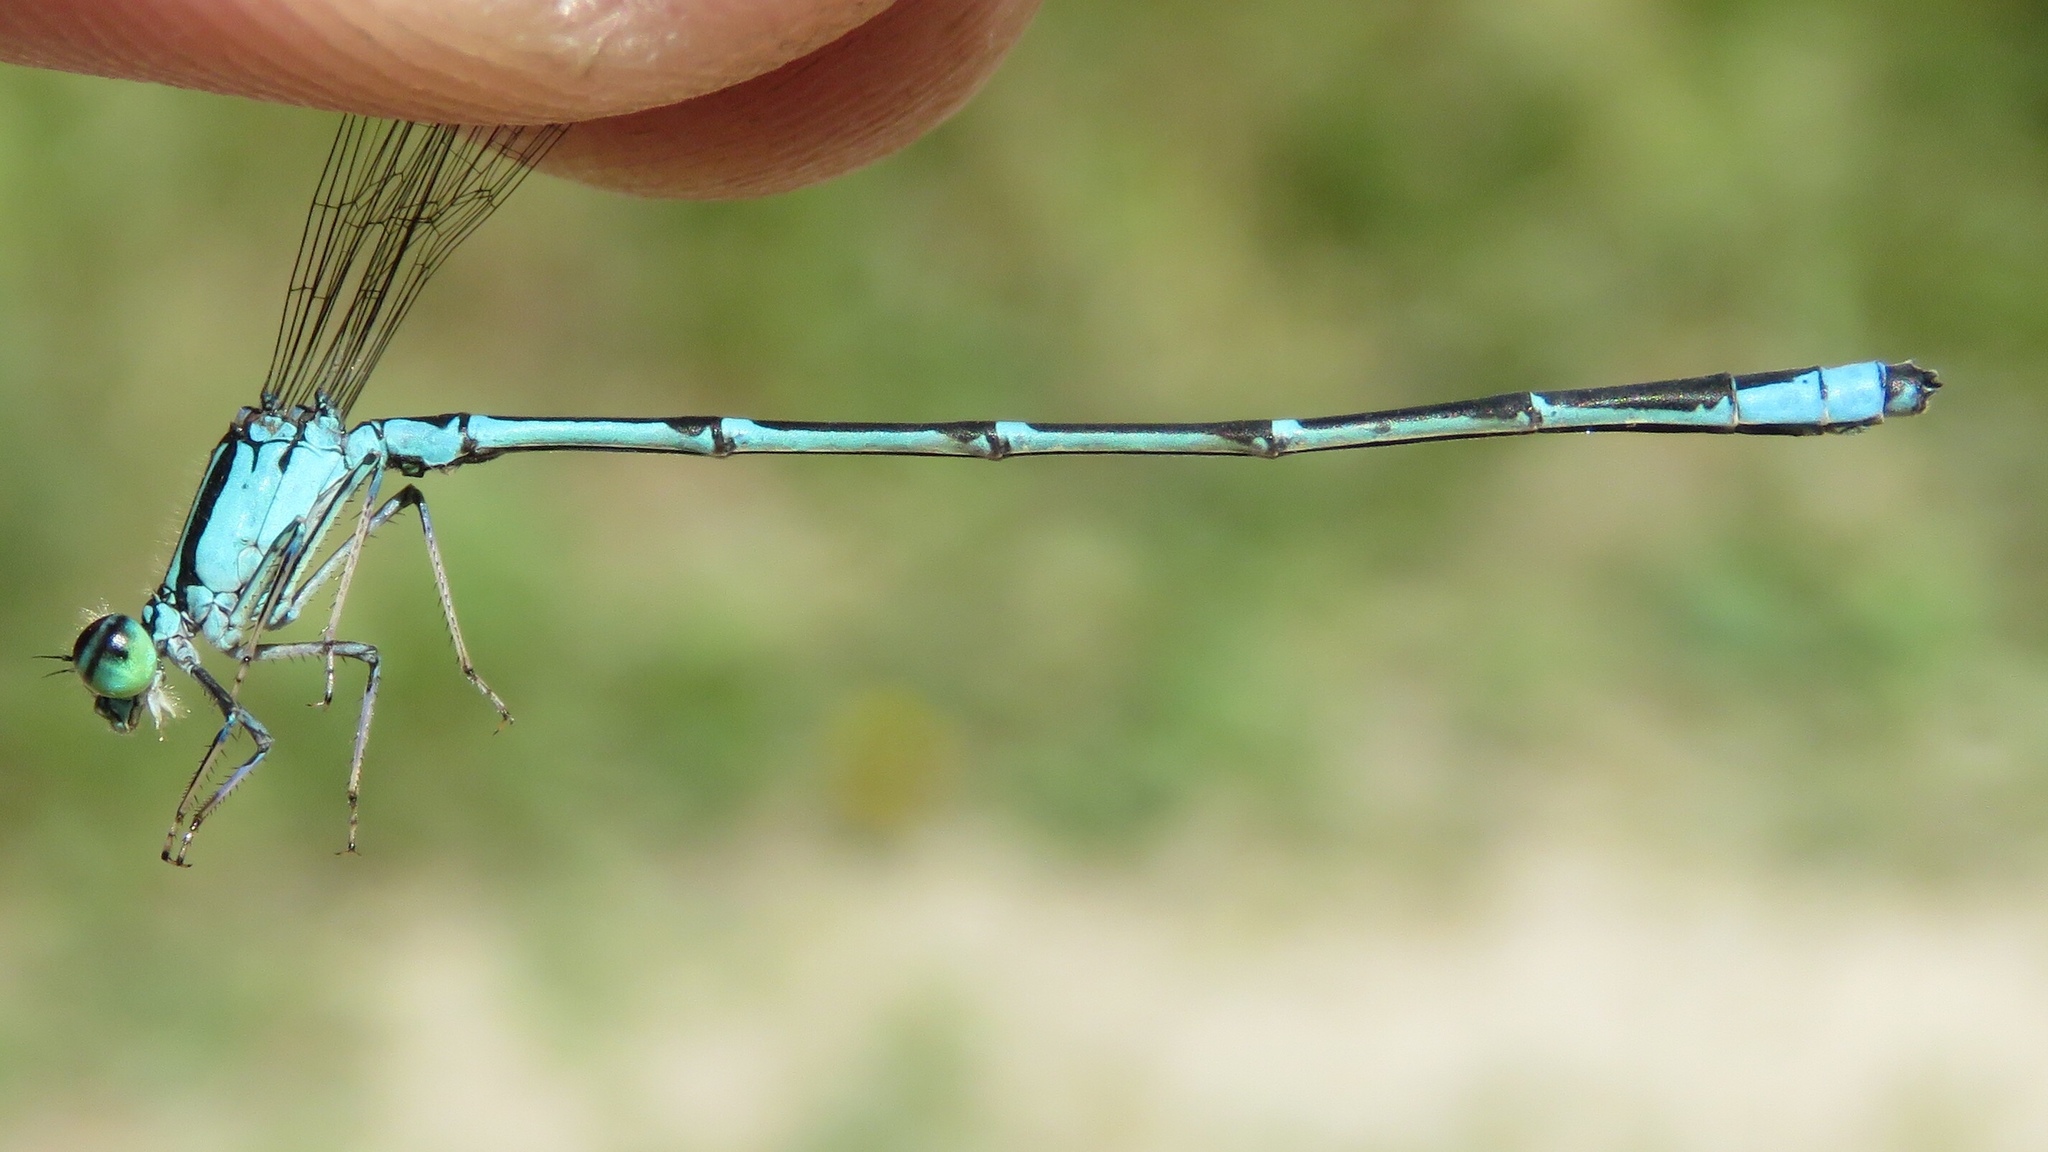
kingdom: Animalia
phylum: Arthropoda
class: Insecta
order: Odonata
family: Coenagrionidae
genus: Enallagma
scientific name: Enallagma exsulans
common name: Stream bluet
